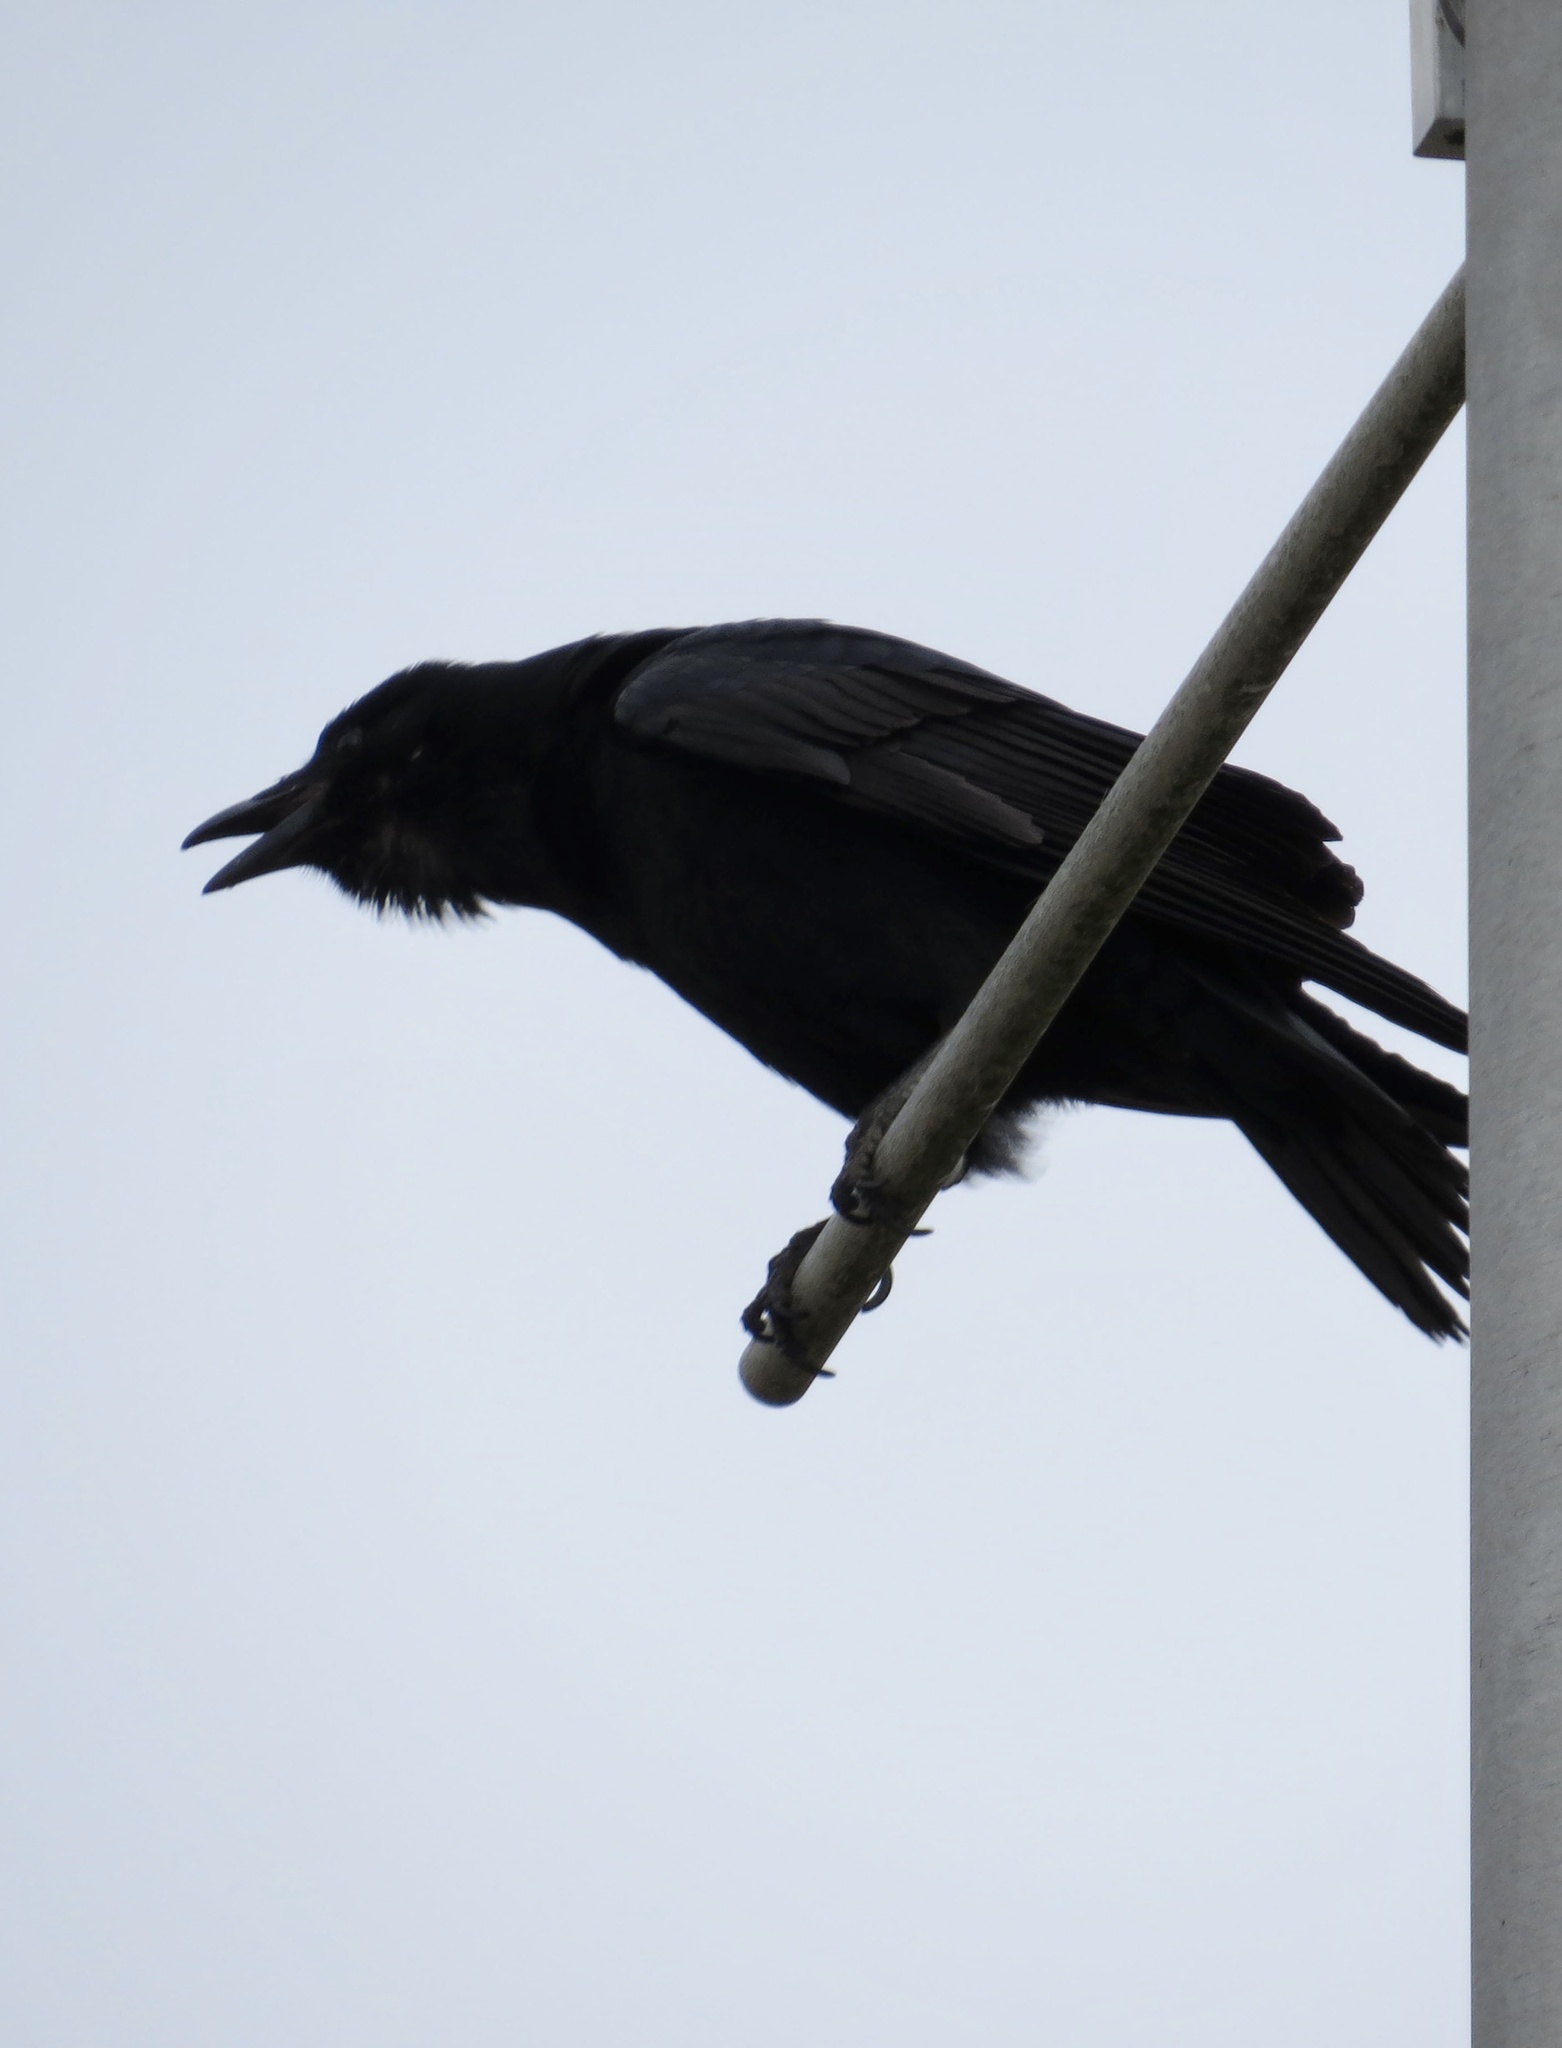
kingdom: Animalia
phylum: Chordata
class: Aves
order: Passeriformes
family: Corvidae
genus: Corvus
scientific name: Corvus brachyrhynchos
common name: American crow
